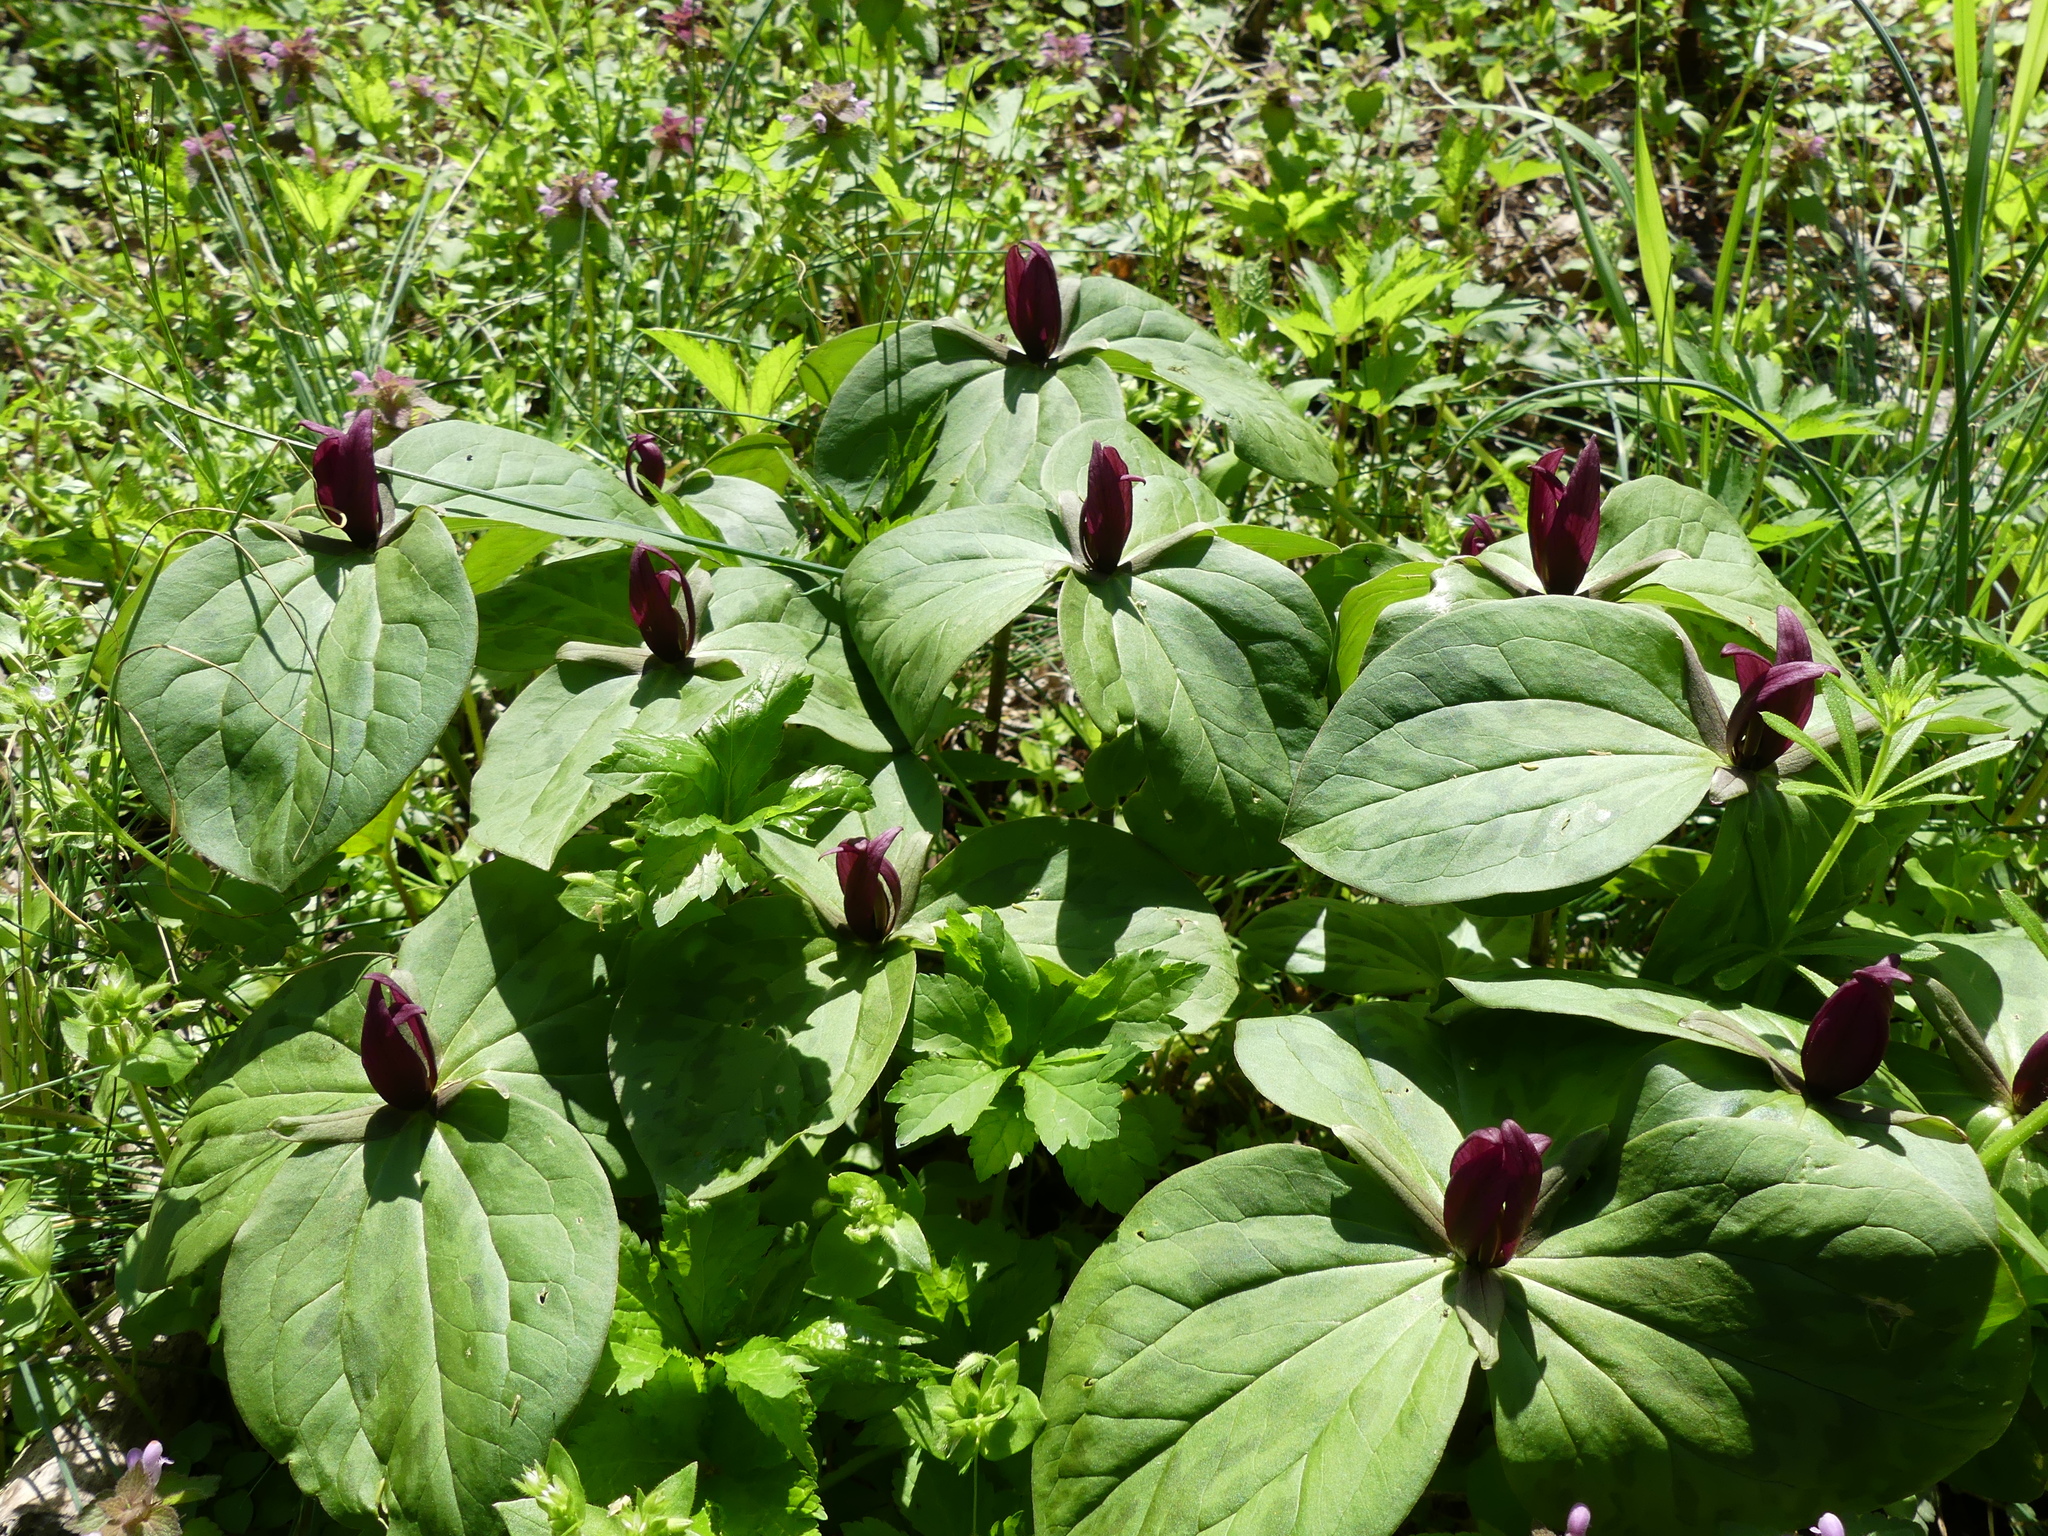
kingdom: Plantae
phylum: Tracheophyta
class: Liliopsida
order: Liliales
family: Melanthiaceae
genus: Trillium
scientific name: Trillium sessile
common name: Sessile trillium
